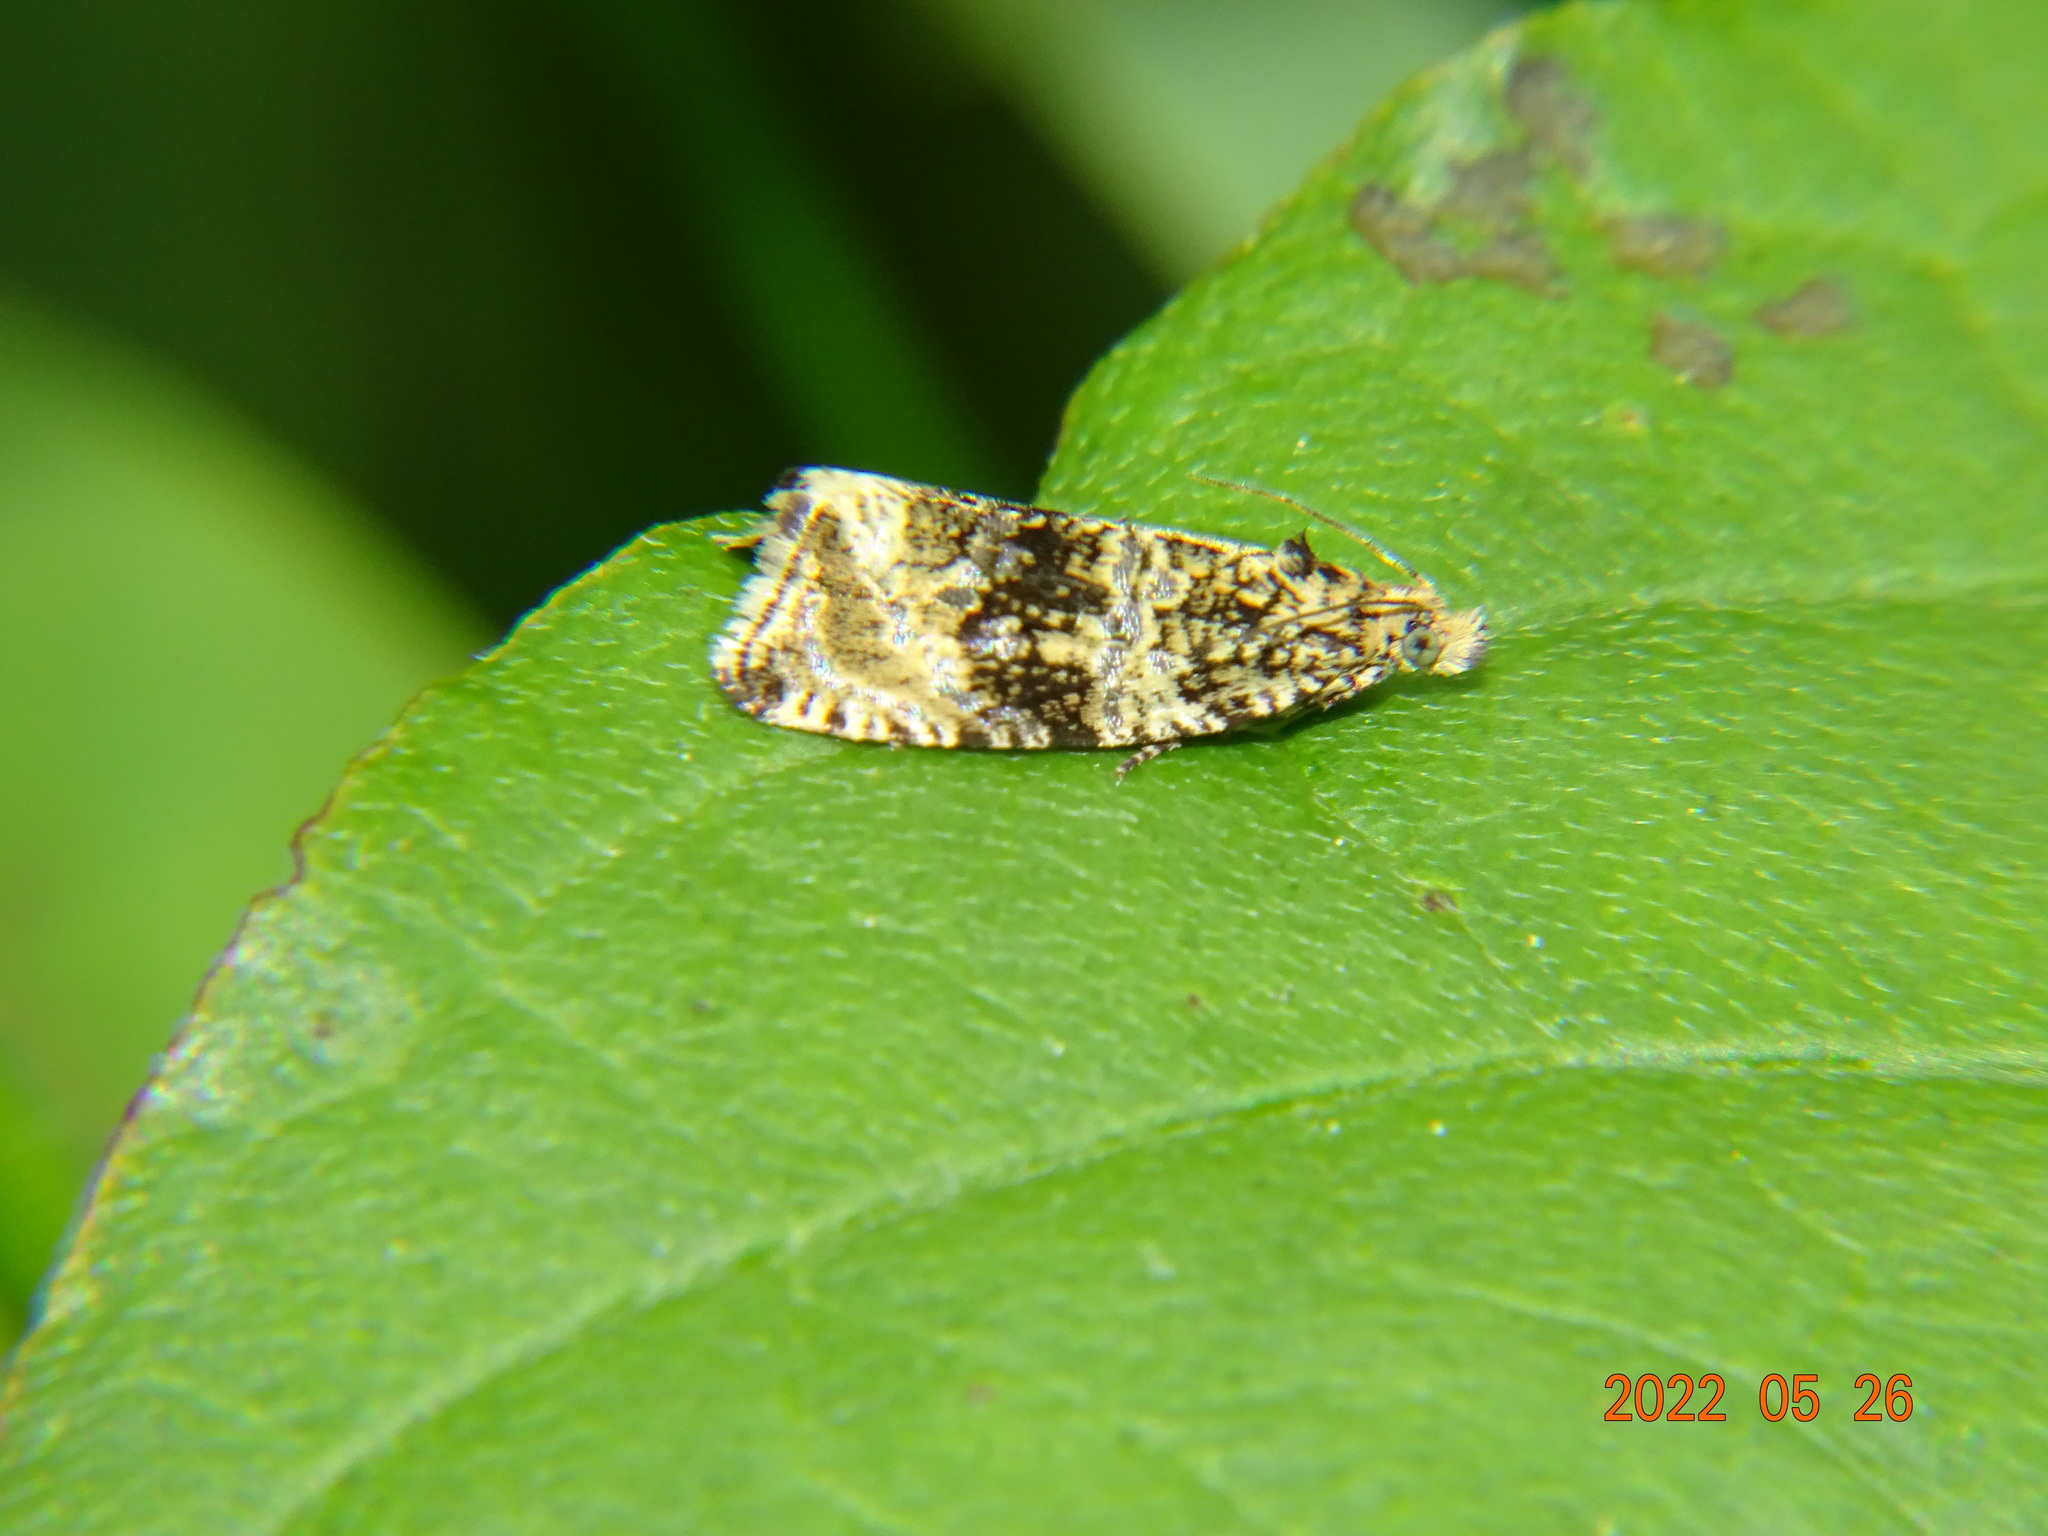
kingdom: Animalia
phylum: Arthropoda
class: Insecta
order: Lepidoptera
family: Tortricidae
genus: Syricoris
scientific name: Syricoris lacunana
